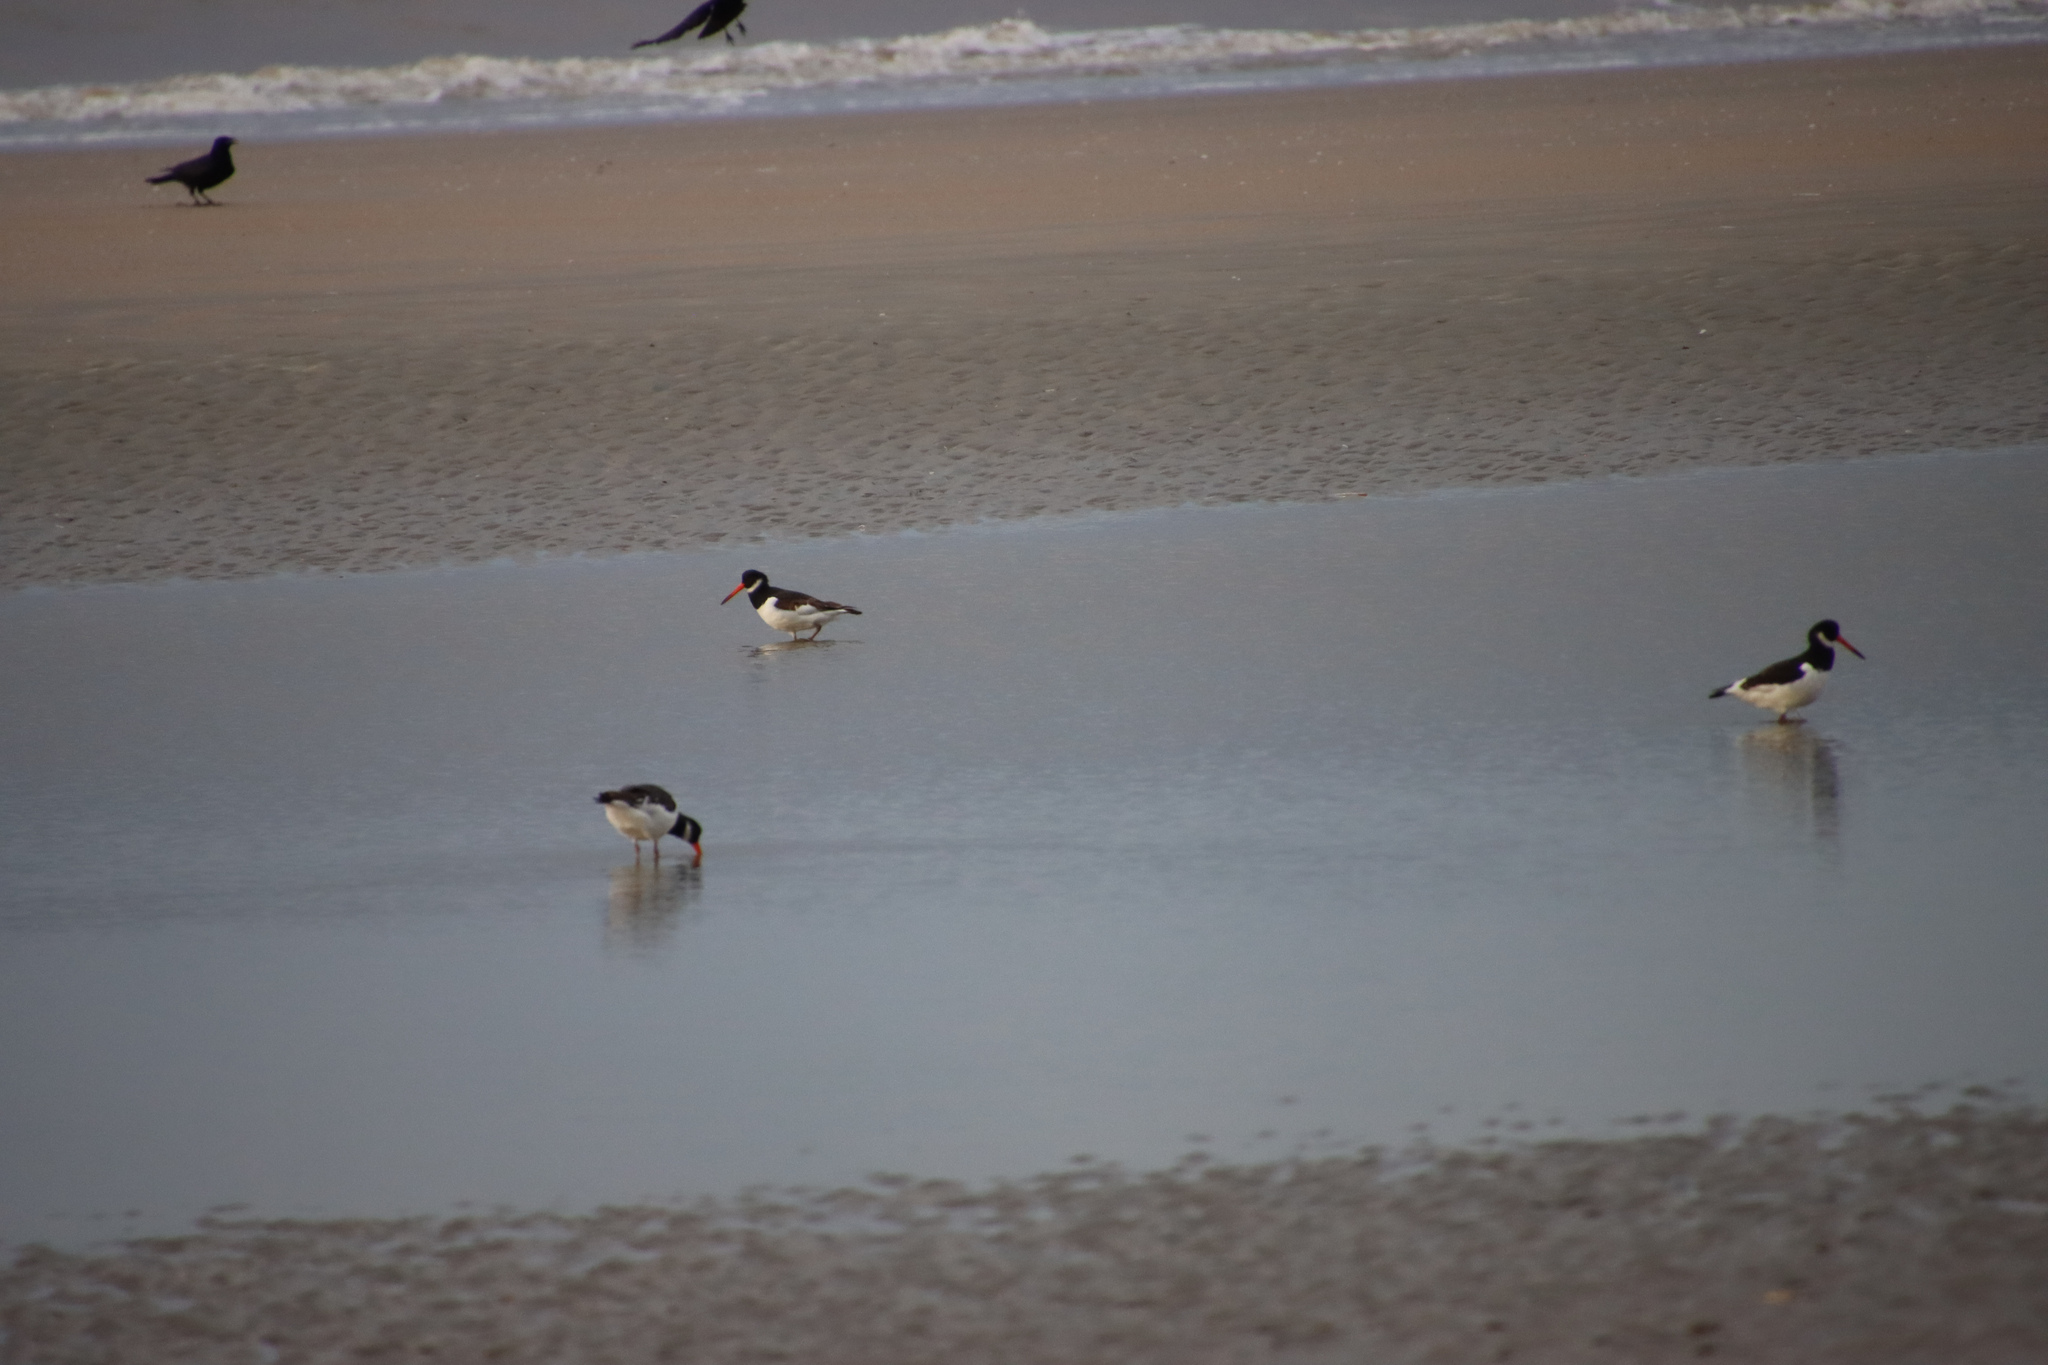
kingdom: Animalia
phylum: Chordata
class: Aves
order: Charadriiformes
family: Haematopodidae
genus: Haematopus
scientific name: Haematopus ostralegus
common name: Eurasian oystercatcher
